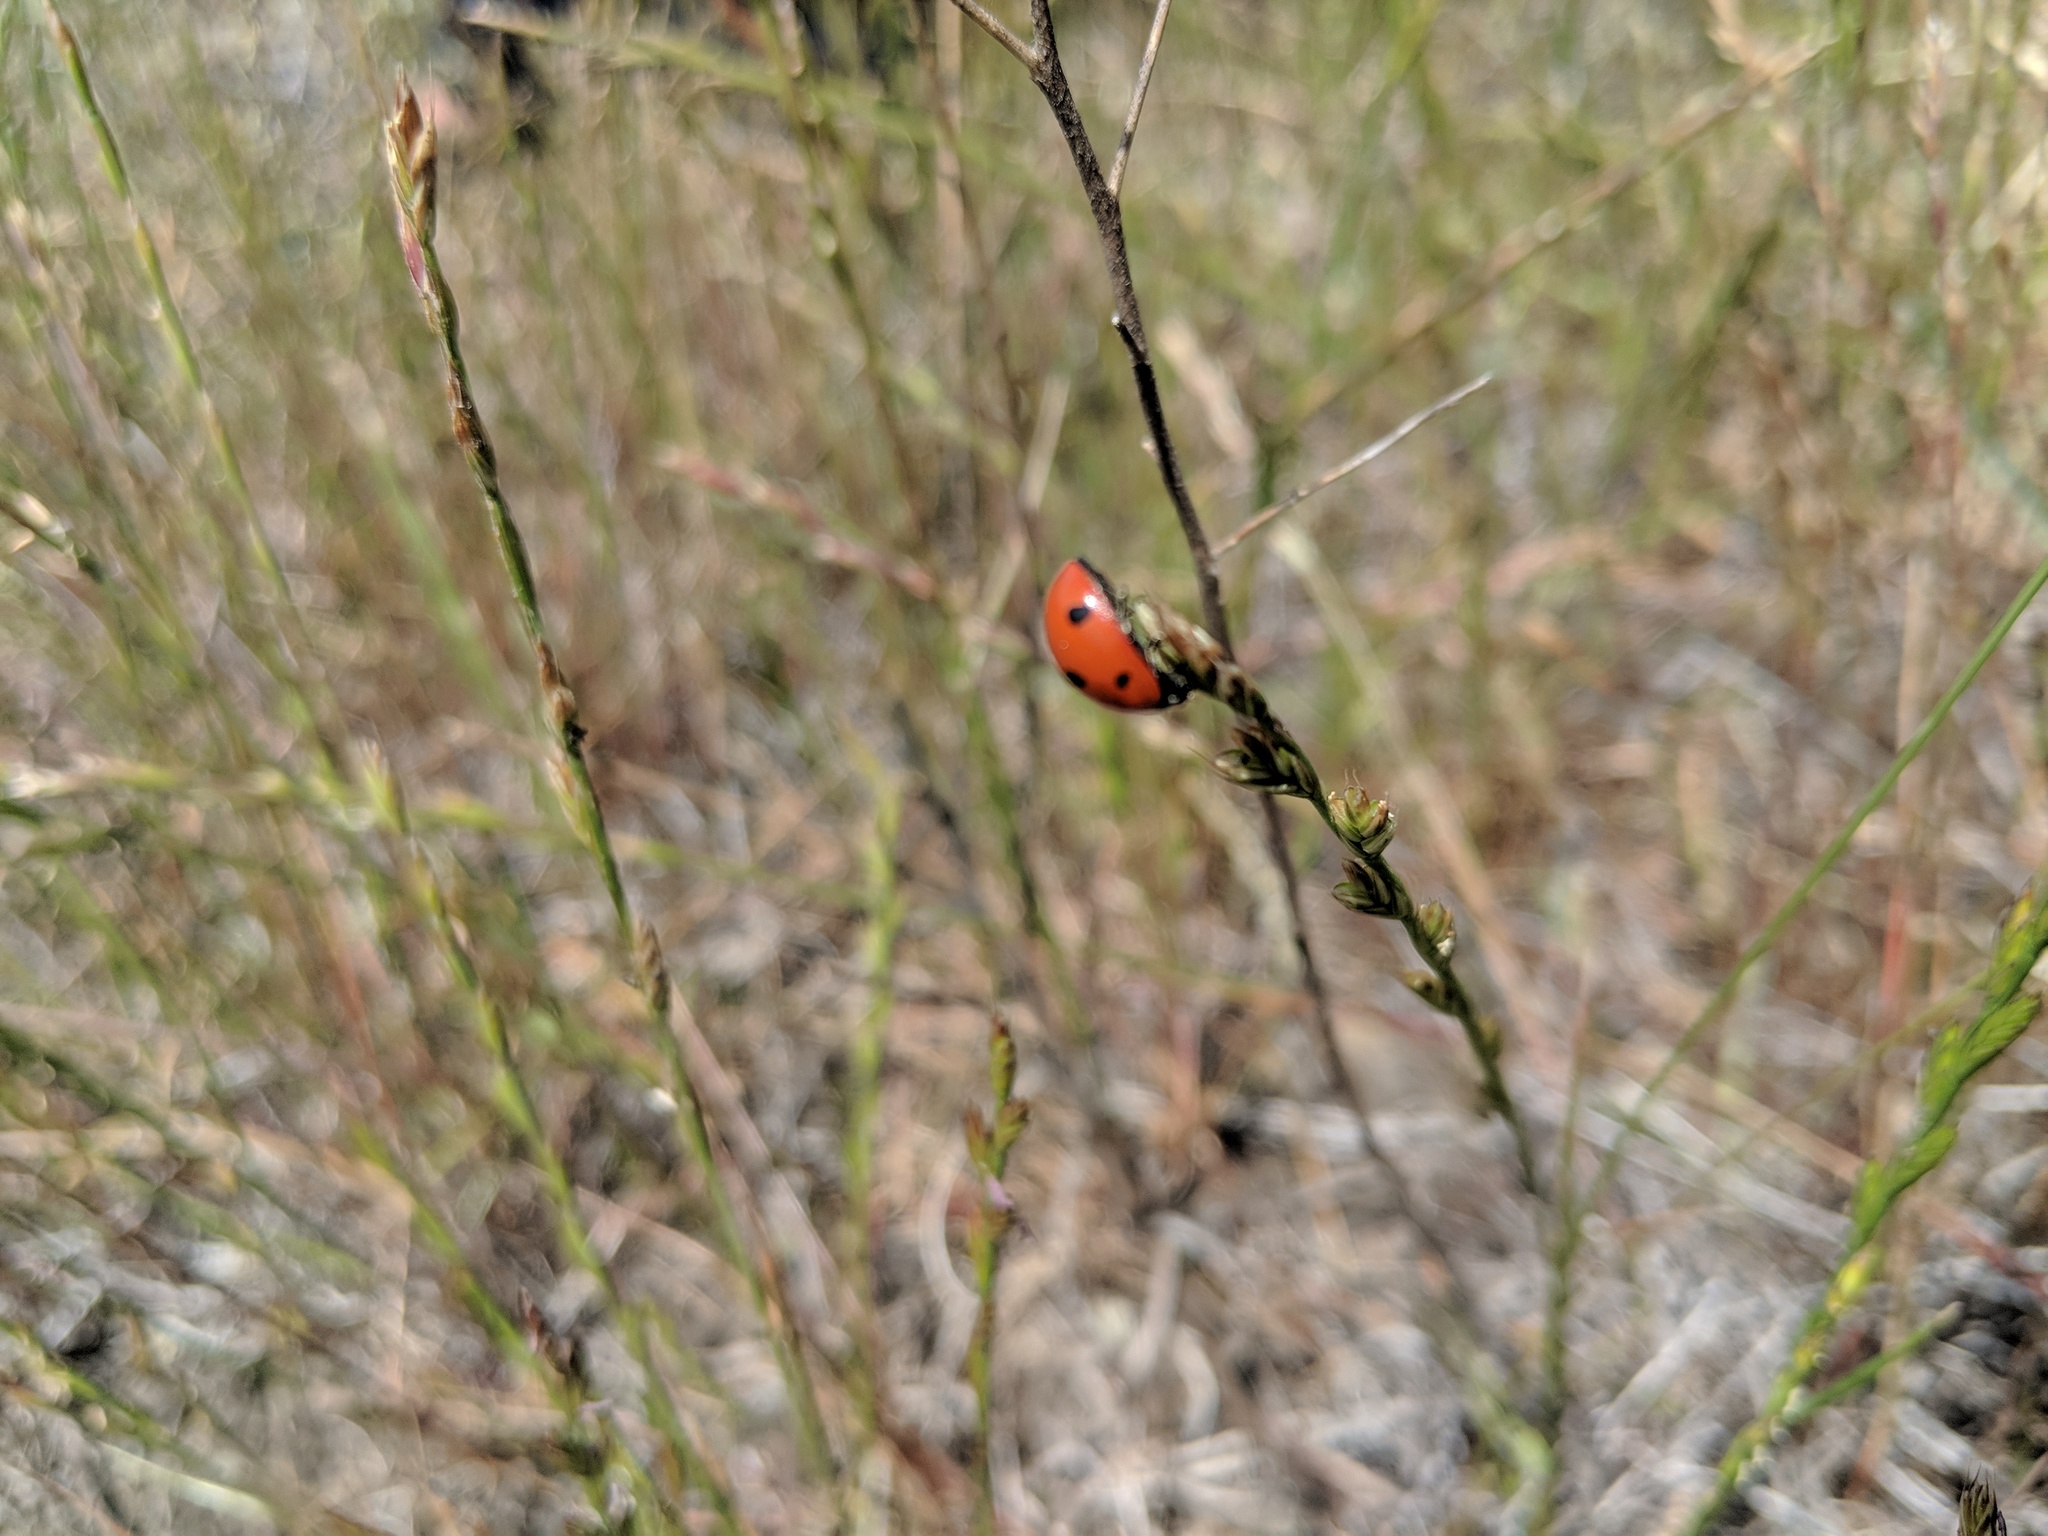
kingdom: Animalia
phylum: Arthropoda
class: Insecta
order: Coleoptera
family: Coccinellidae
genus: Coccinella
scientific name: Coccinella septempunctata
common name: Sevenspotted lady beetle
